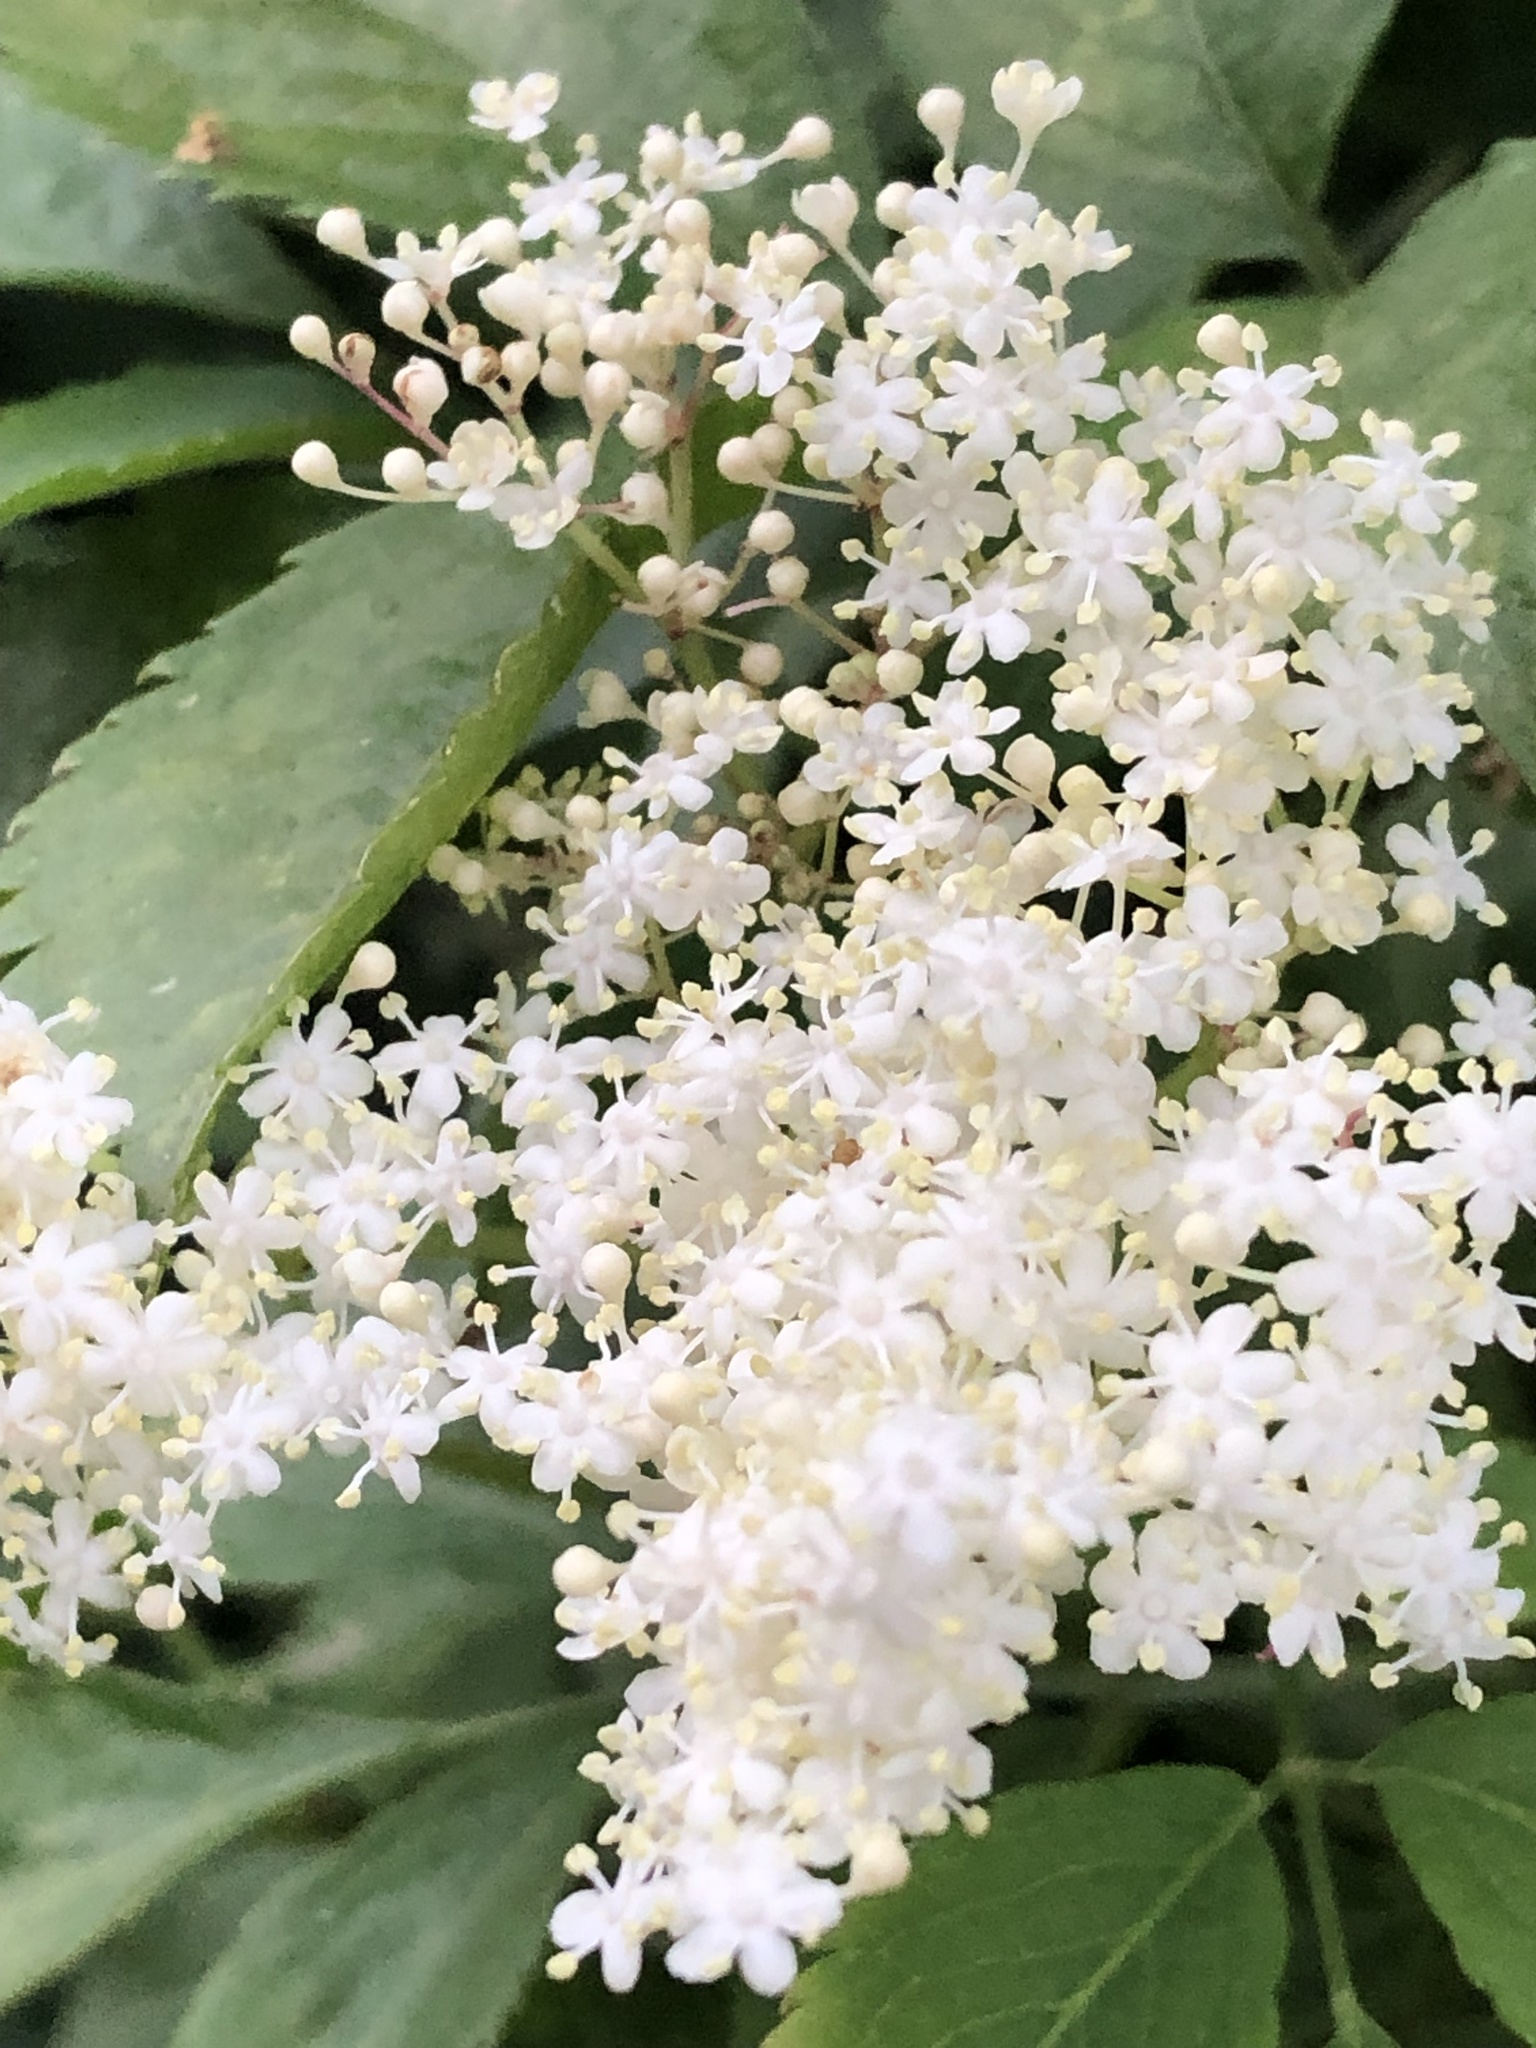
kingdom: Plantae
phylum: Tracheophyta
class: Magnoliopsida
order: Dipsacales
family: Viburnaceae
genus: Sambucus
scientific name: Sambucus nigra
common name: Elder
